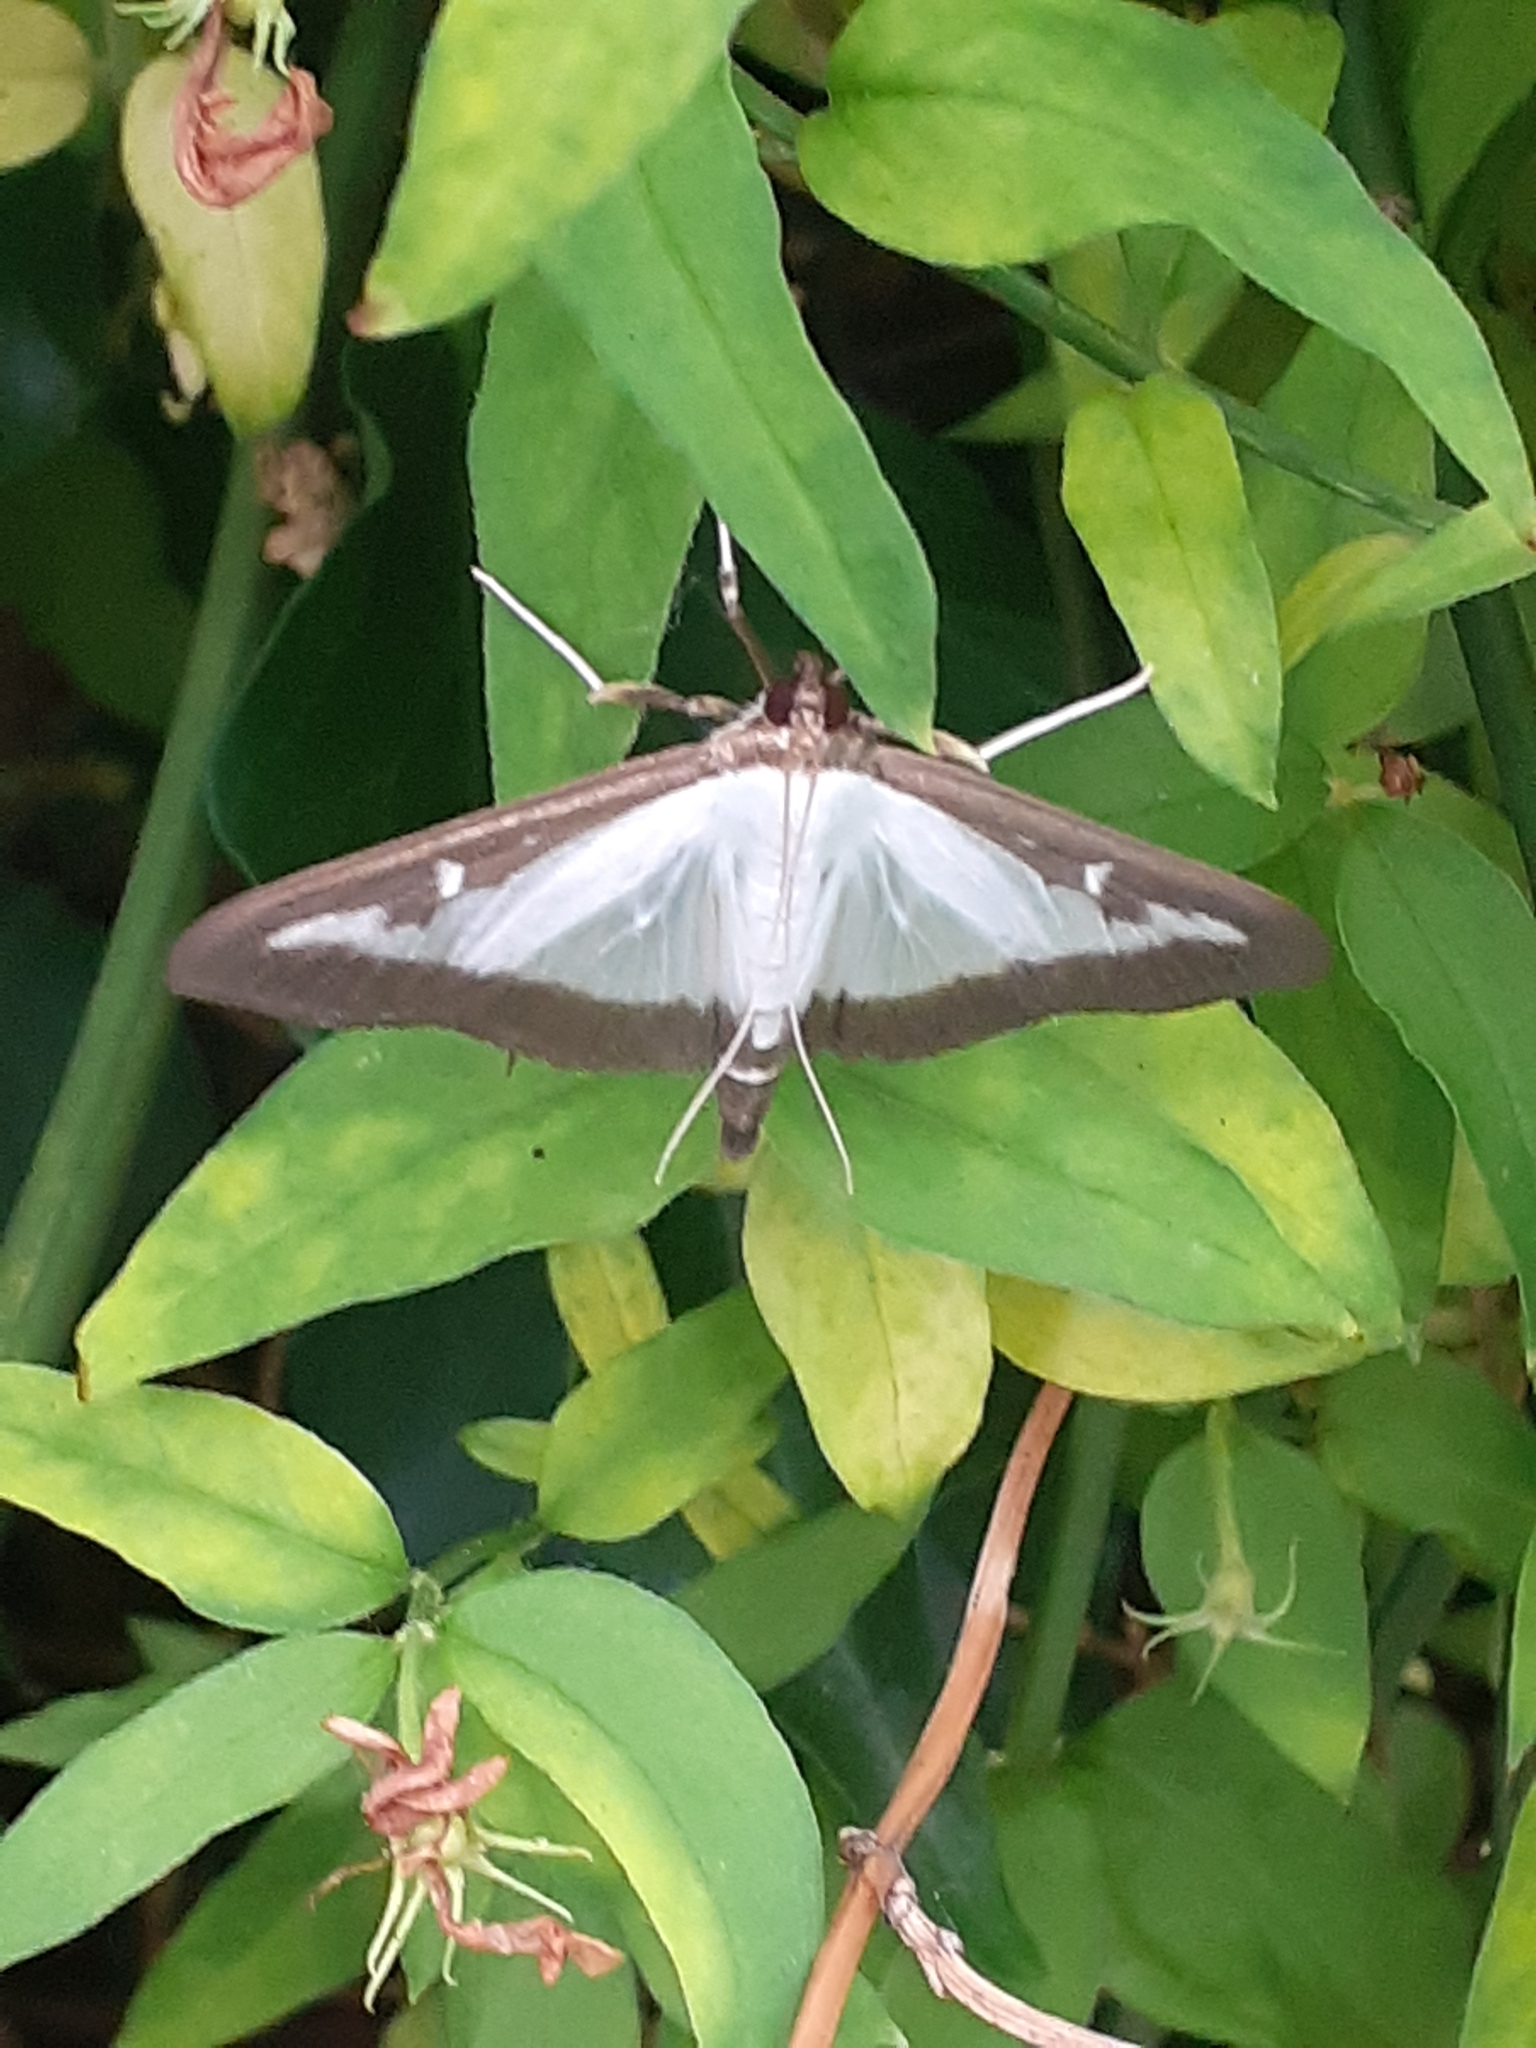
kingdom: Animalia
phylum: Arthropoda
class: Insecta
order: Lepidoptera
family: Crambidae
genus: Cydalima
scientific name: Cydalima perspectalis
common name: Box tree moth
